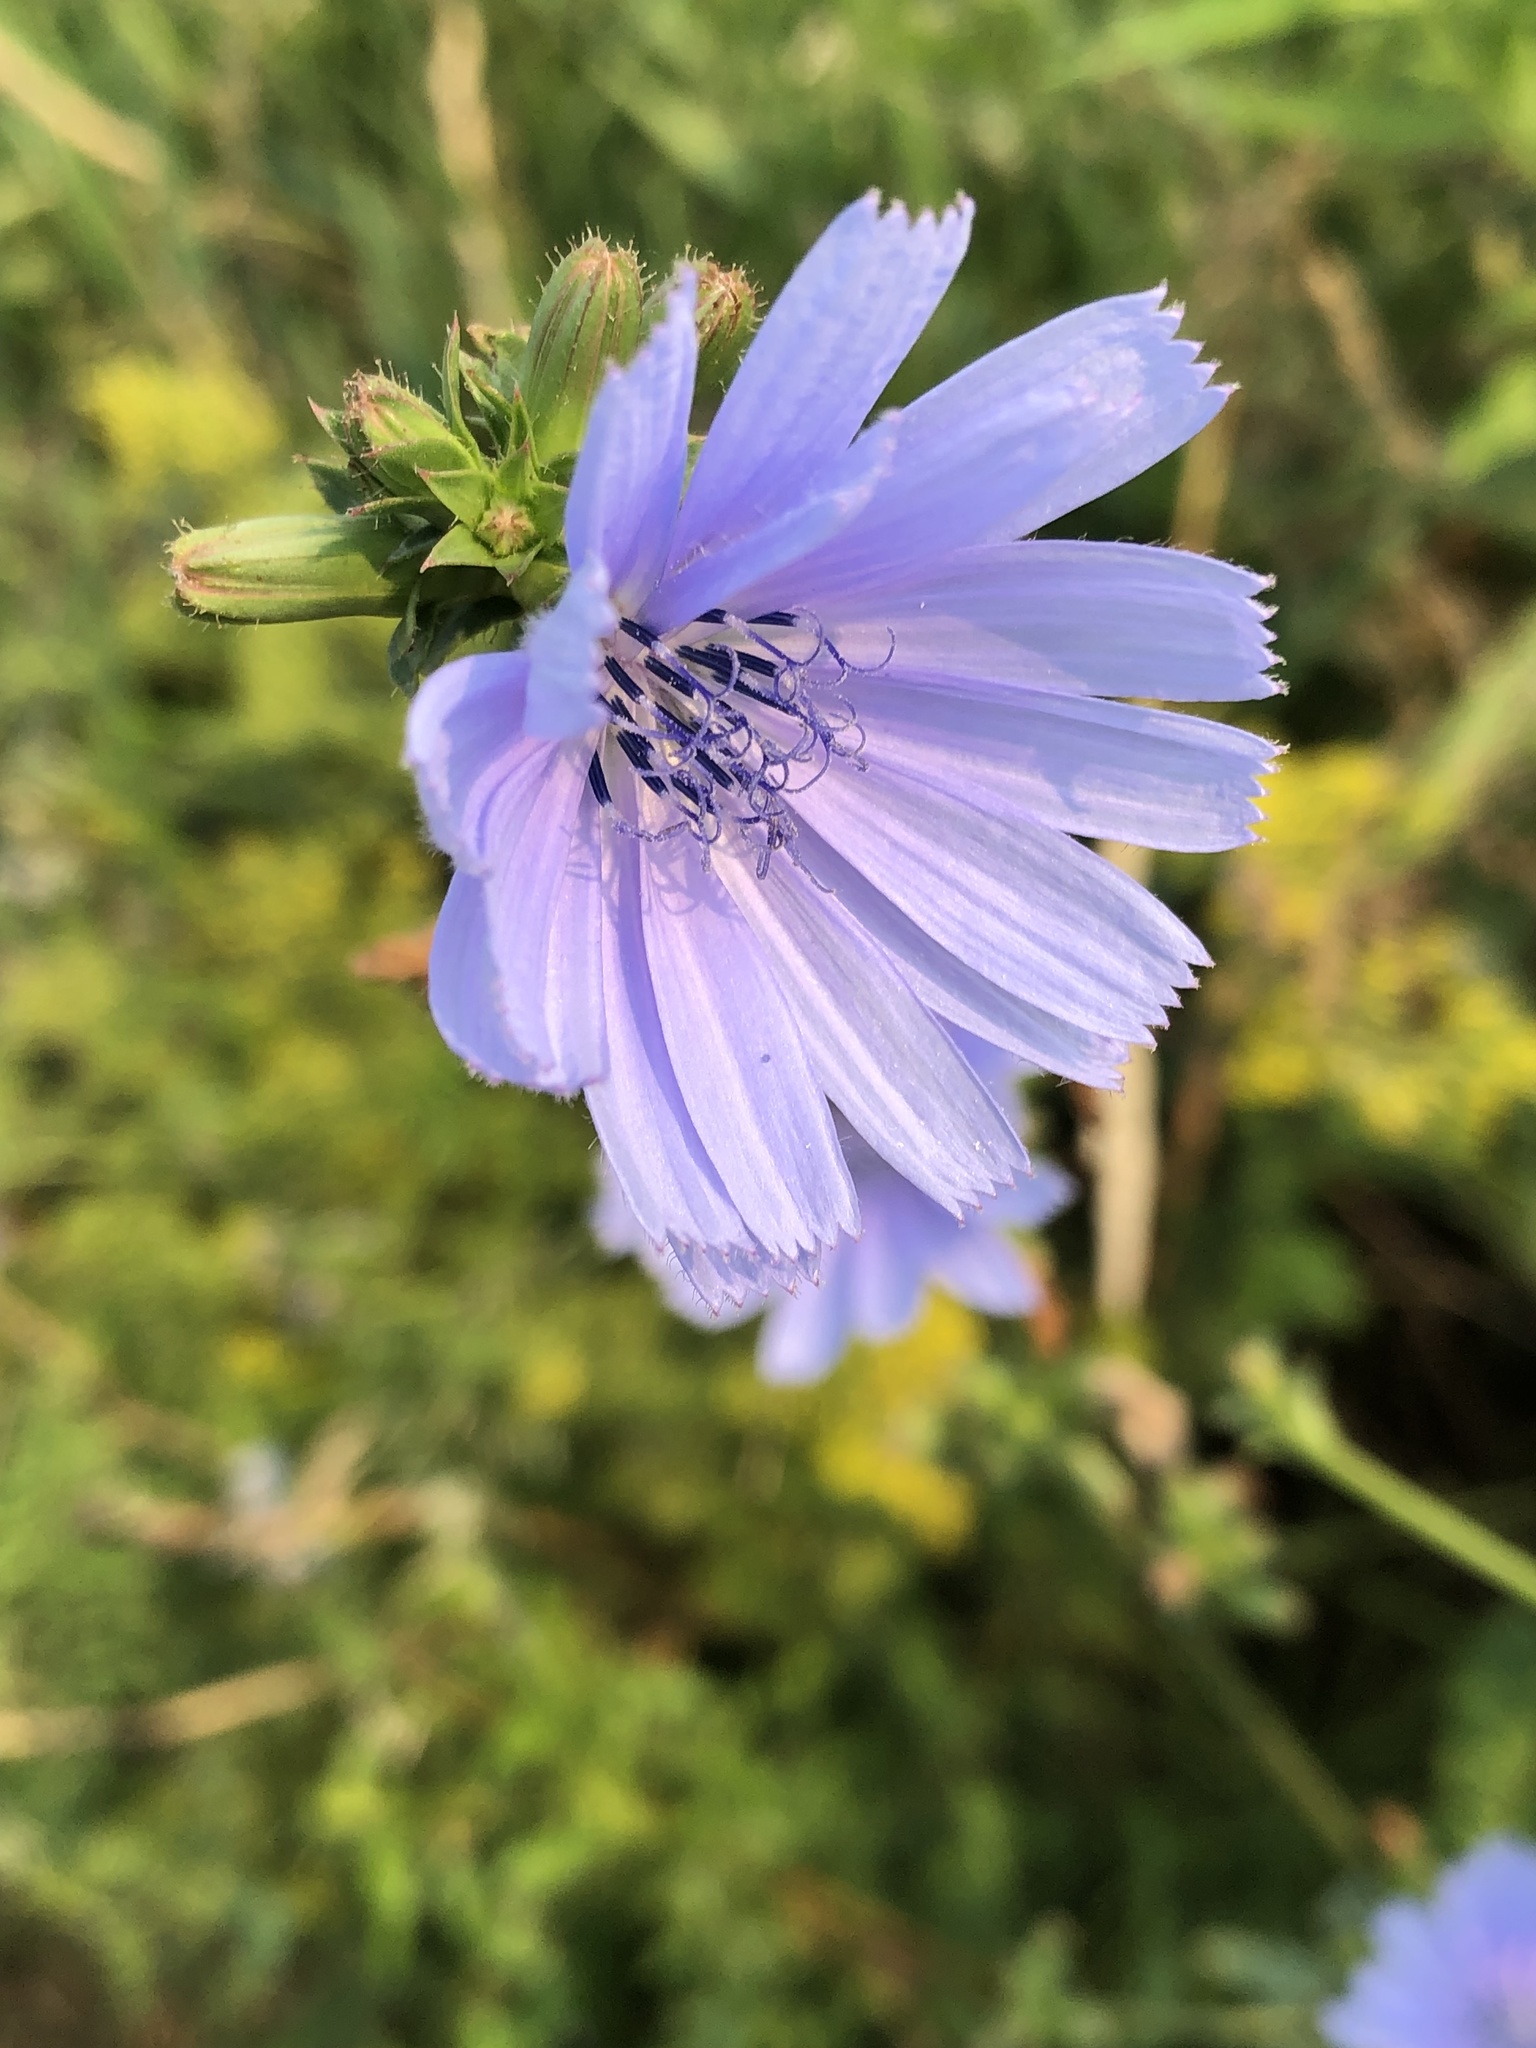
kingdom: Plantae
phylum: Tracheophyta
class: Magnoliopsida
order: Asterales
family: Asteraceae
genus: Cichorium
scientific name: Cichorium intybus
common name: Chicory
